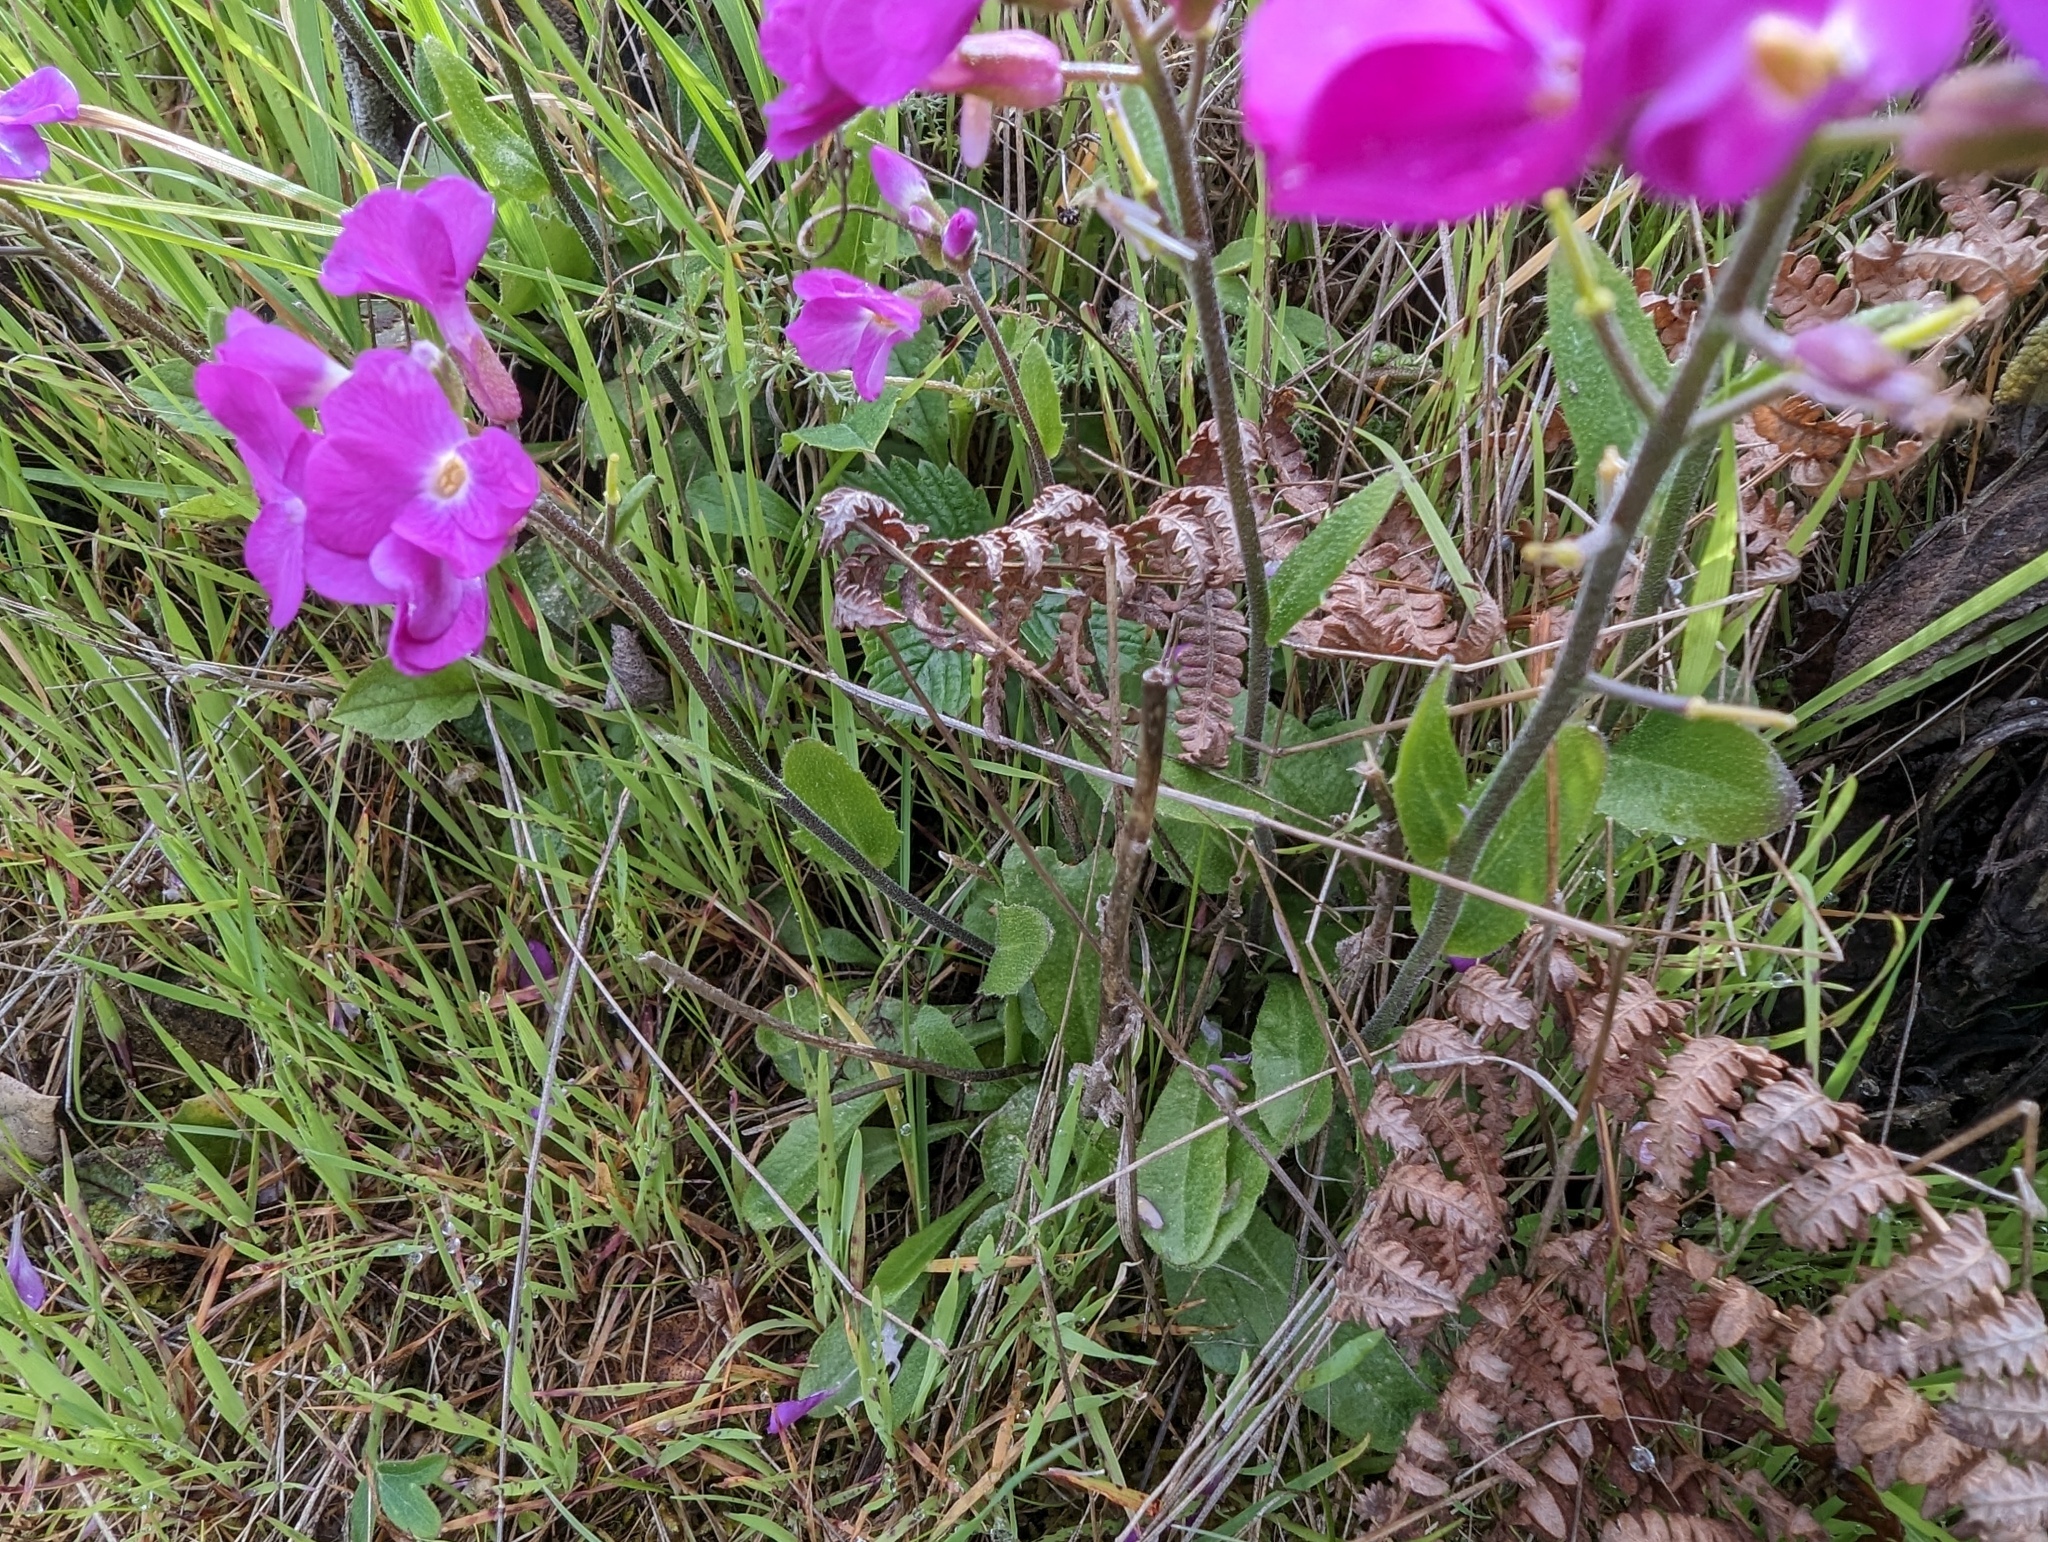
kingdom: Plantae
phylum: Tracheophyta
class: Magnoliopsida
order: Brassicales
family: Brassicaceae
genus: Arabis
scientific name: Arabis blepharophylla
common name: Rose rockcress
